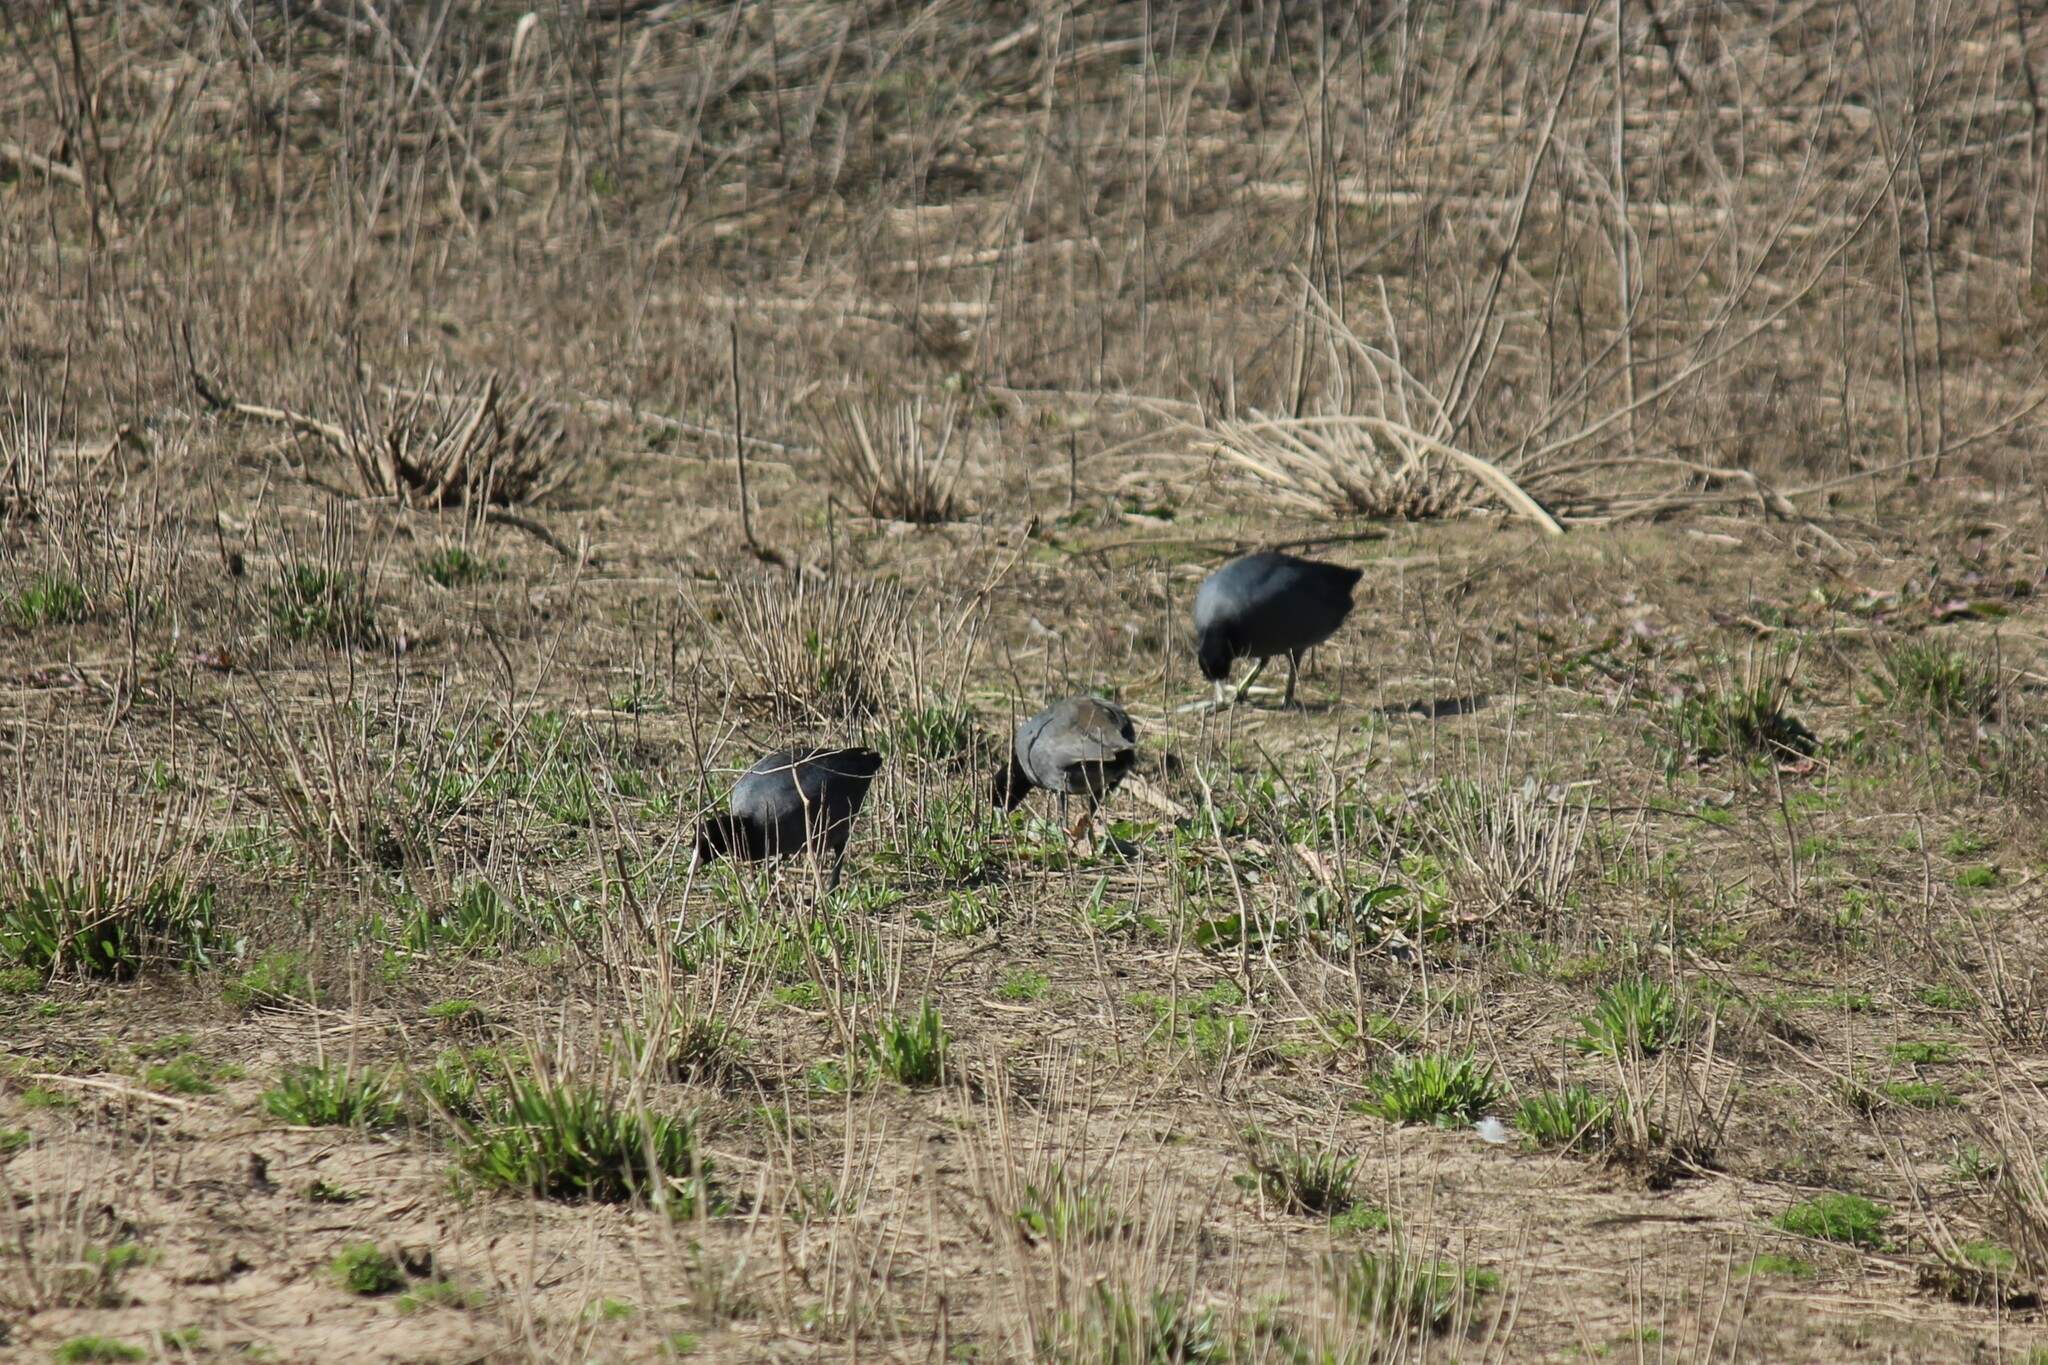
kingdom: Animalia
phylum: Chordata
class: Aves
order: Gruiformes
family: Rallidae
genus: Fulica
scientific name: Fulica americana
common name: American coot
